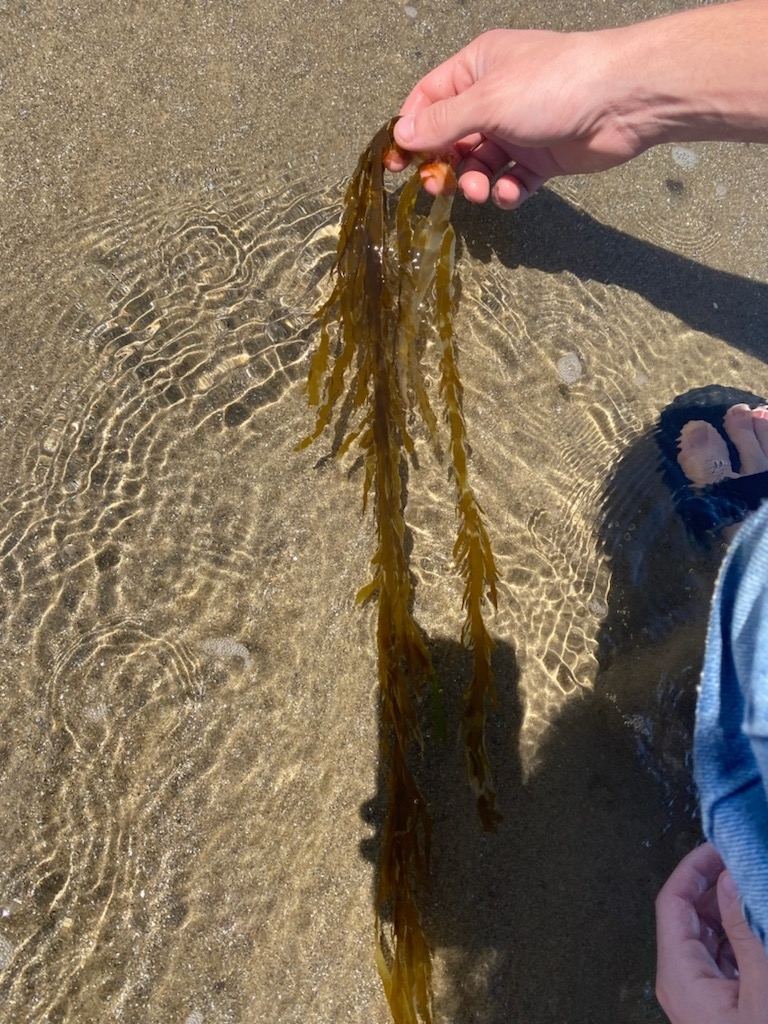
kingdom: Chromista
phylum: Ochrophyta
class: Phaeophyceae
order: Desmarestiales
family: Desmarestiaceae
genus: Desmarestia
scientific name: Desmarestia ligulata
